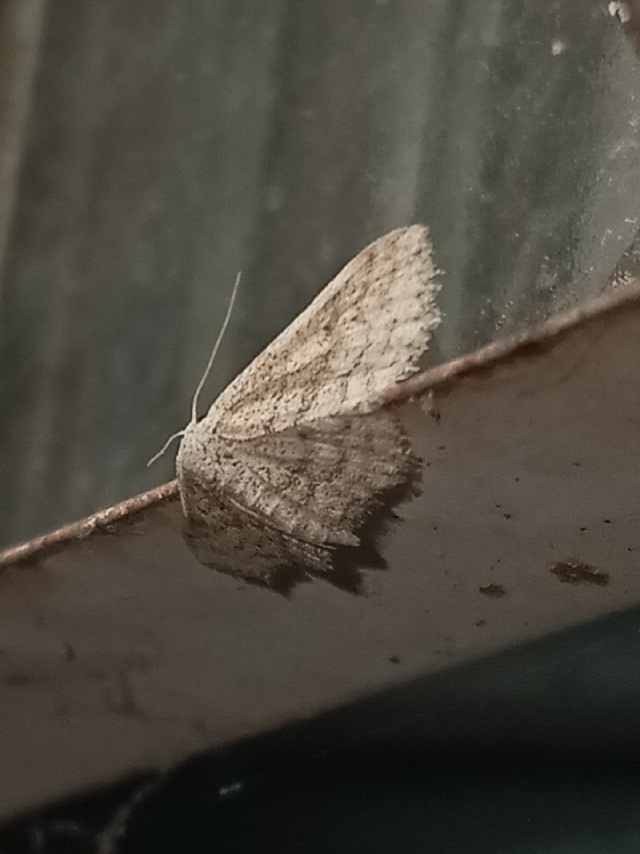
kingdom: Animalia
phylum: Arthropoda
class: Insecta
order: Lepidoptera
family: Geometridae
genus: Lobocleta
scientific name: Lobocleta ossularia
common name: Drab brown wave
